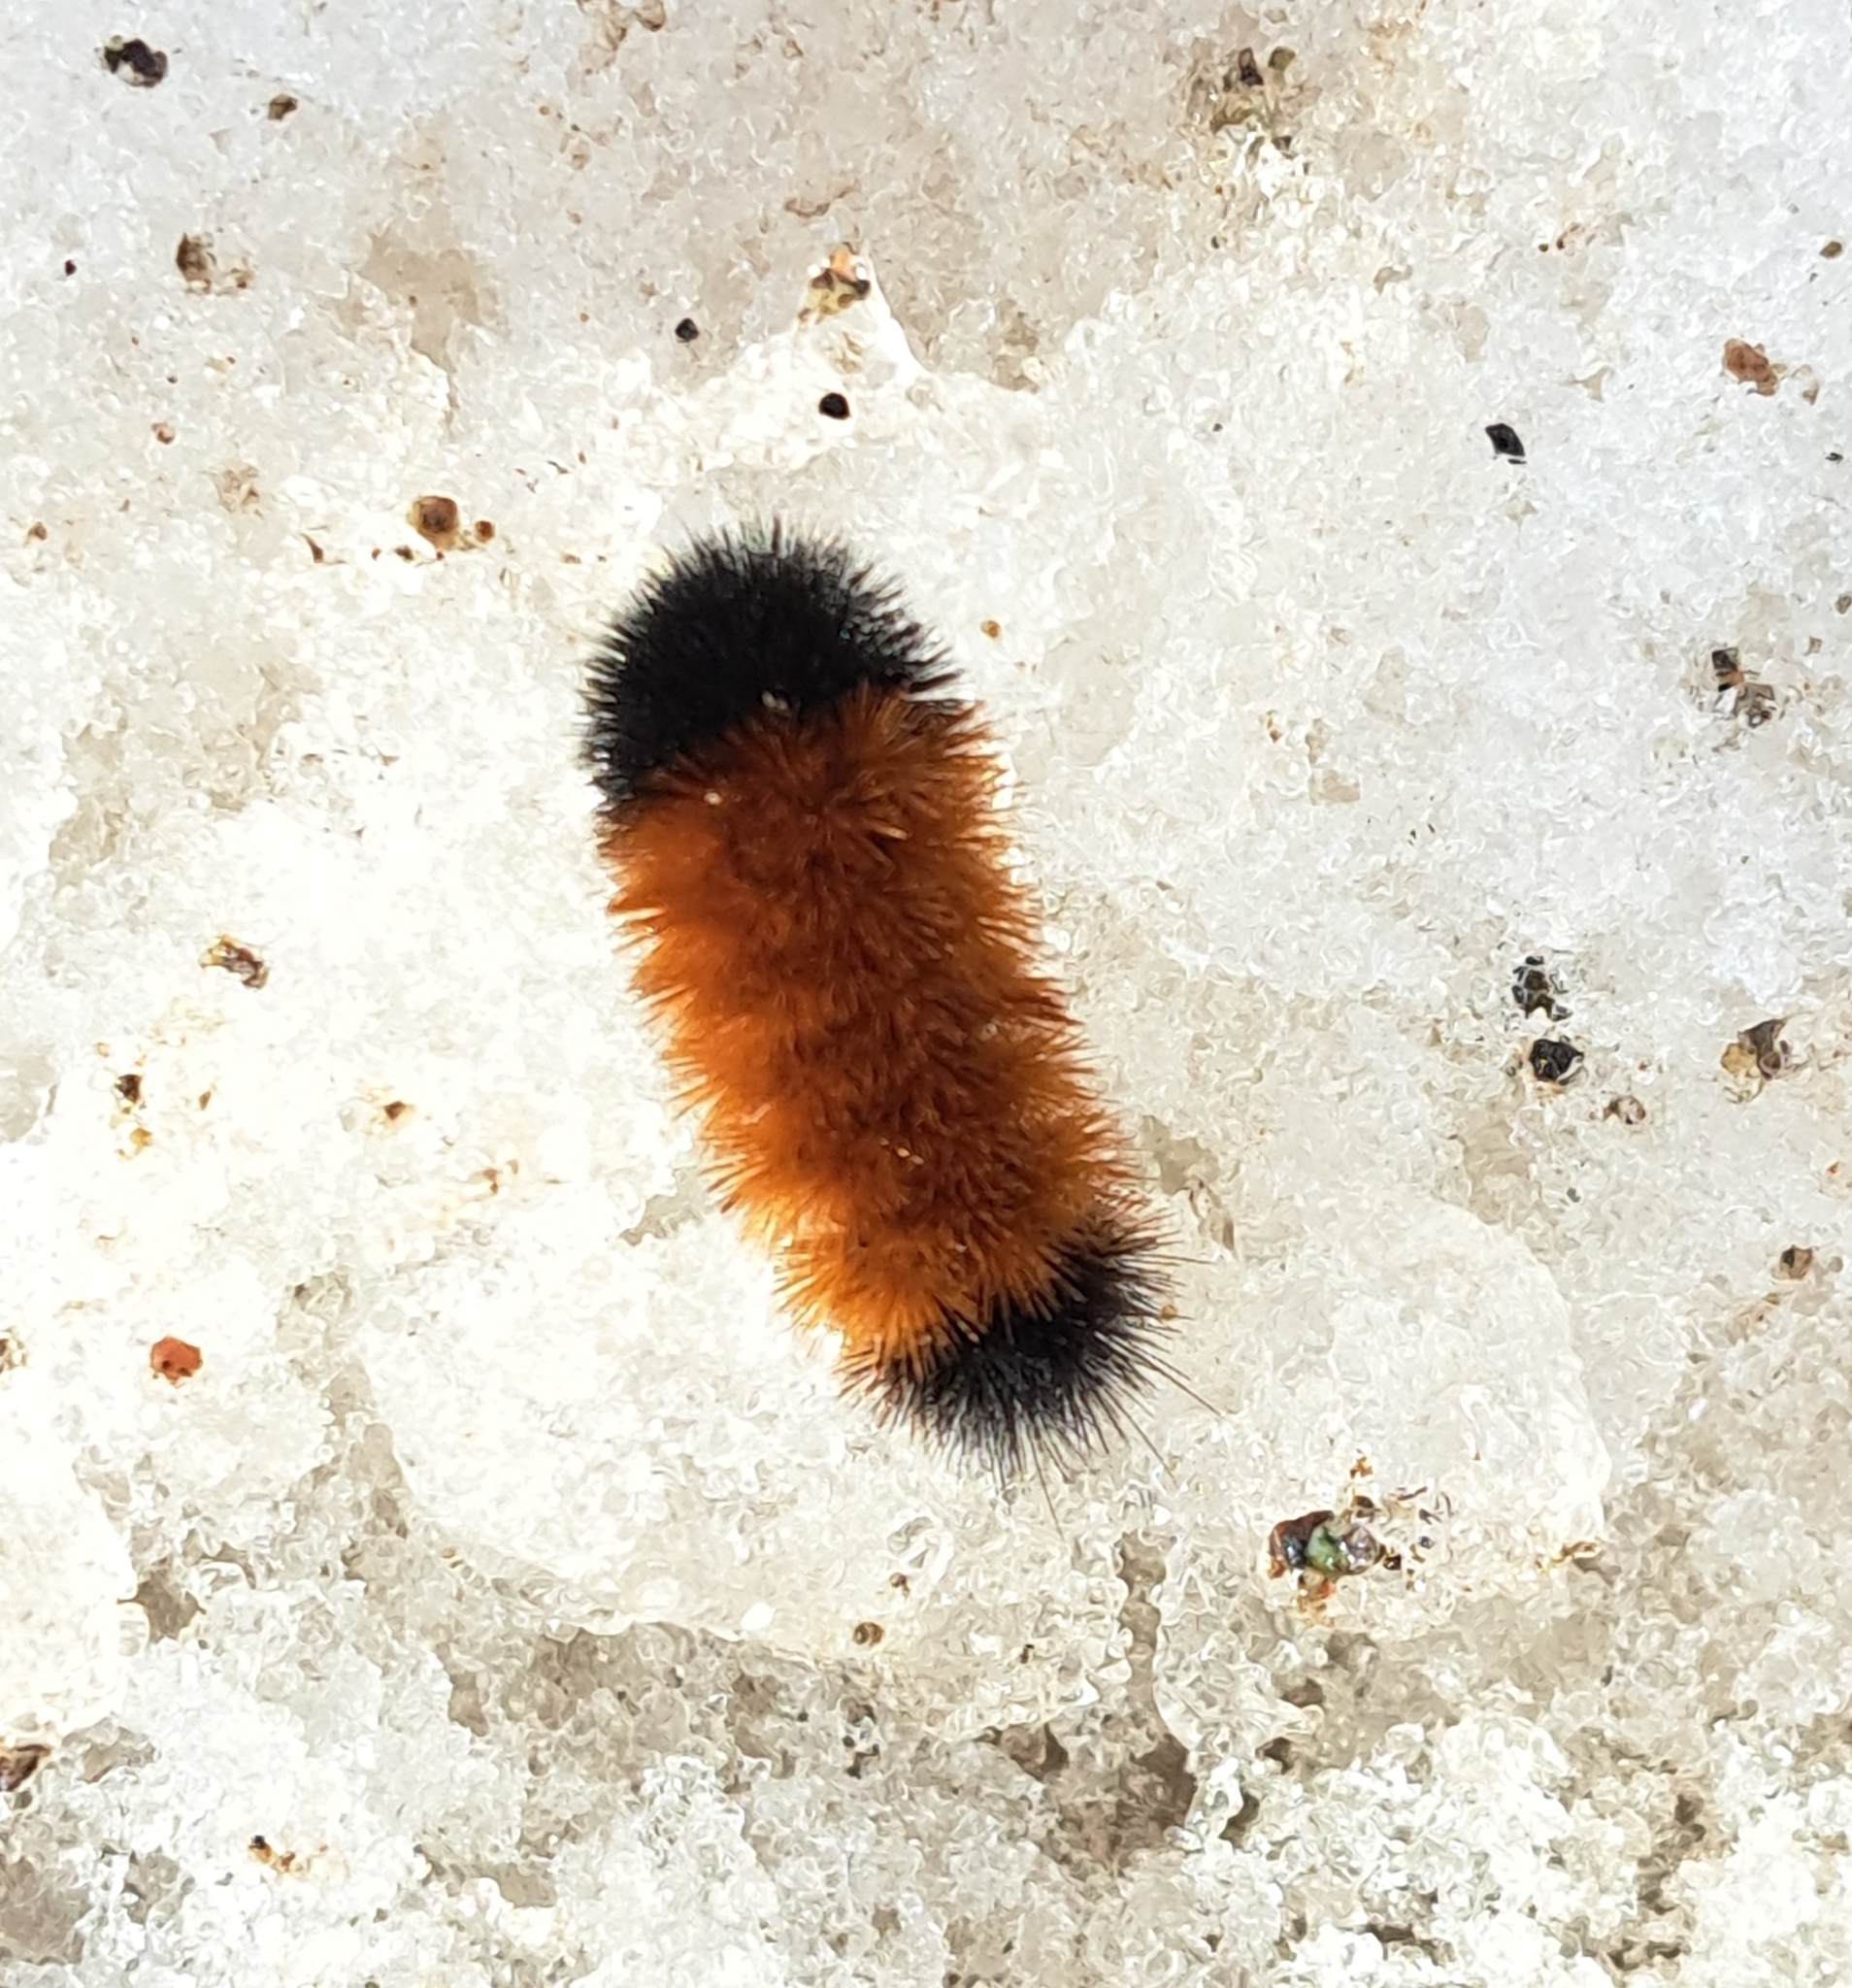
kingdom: Animalia
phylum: Arthropoda
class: Insecta
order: Lepidoptera
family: Erebidae
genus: Pyrrharctia
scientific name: Pyrrharctia isabella
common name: Isabella tiger moth
